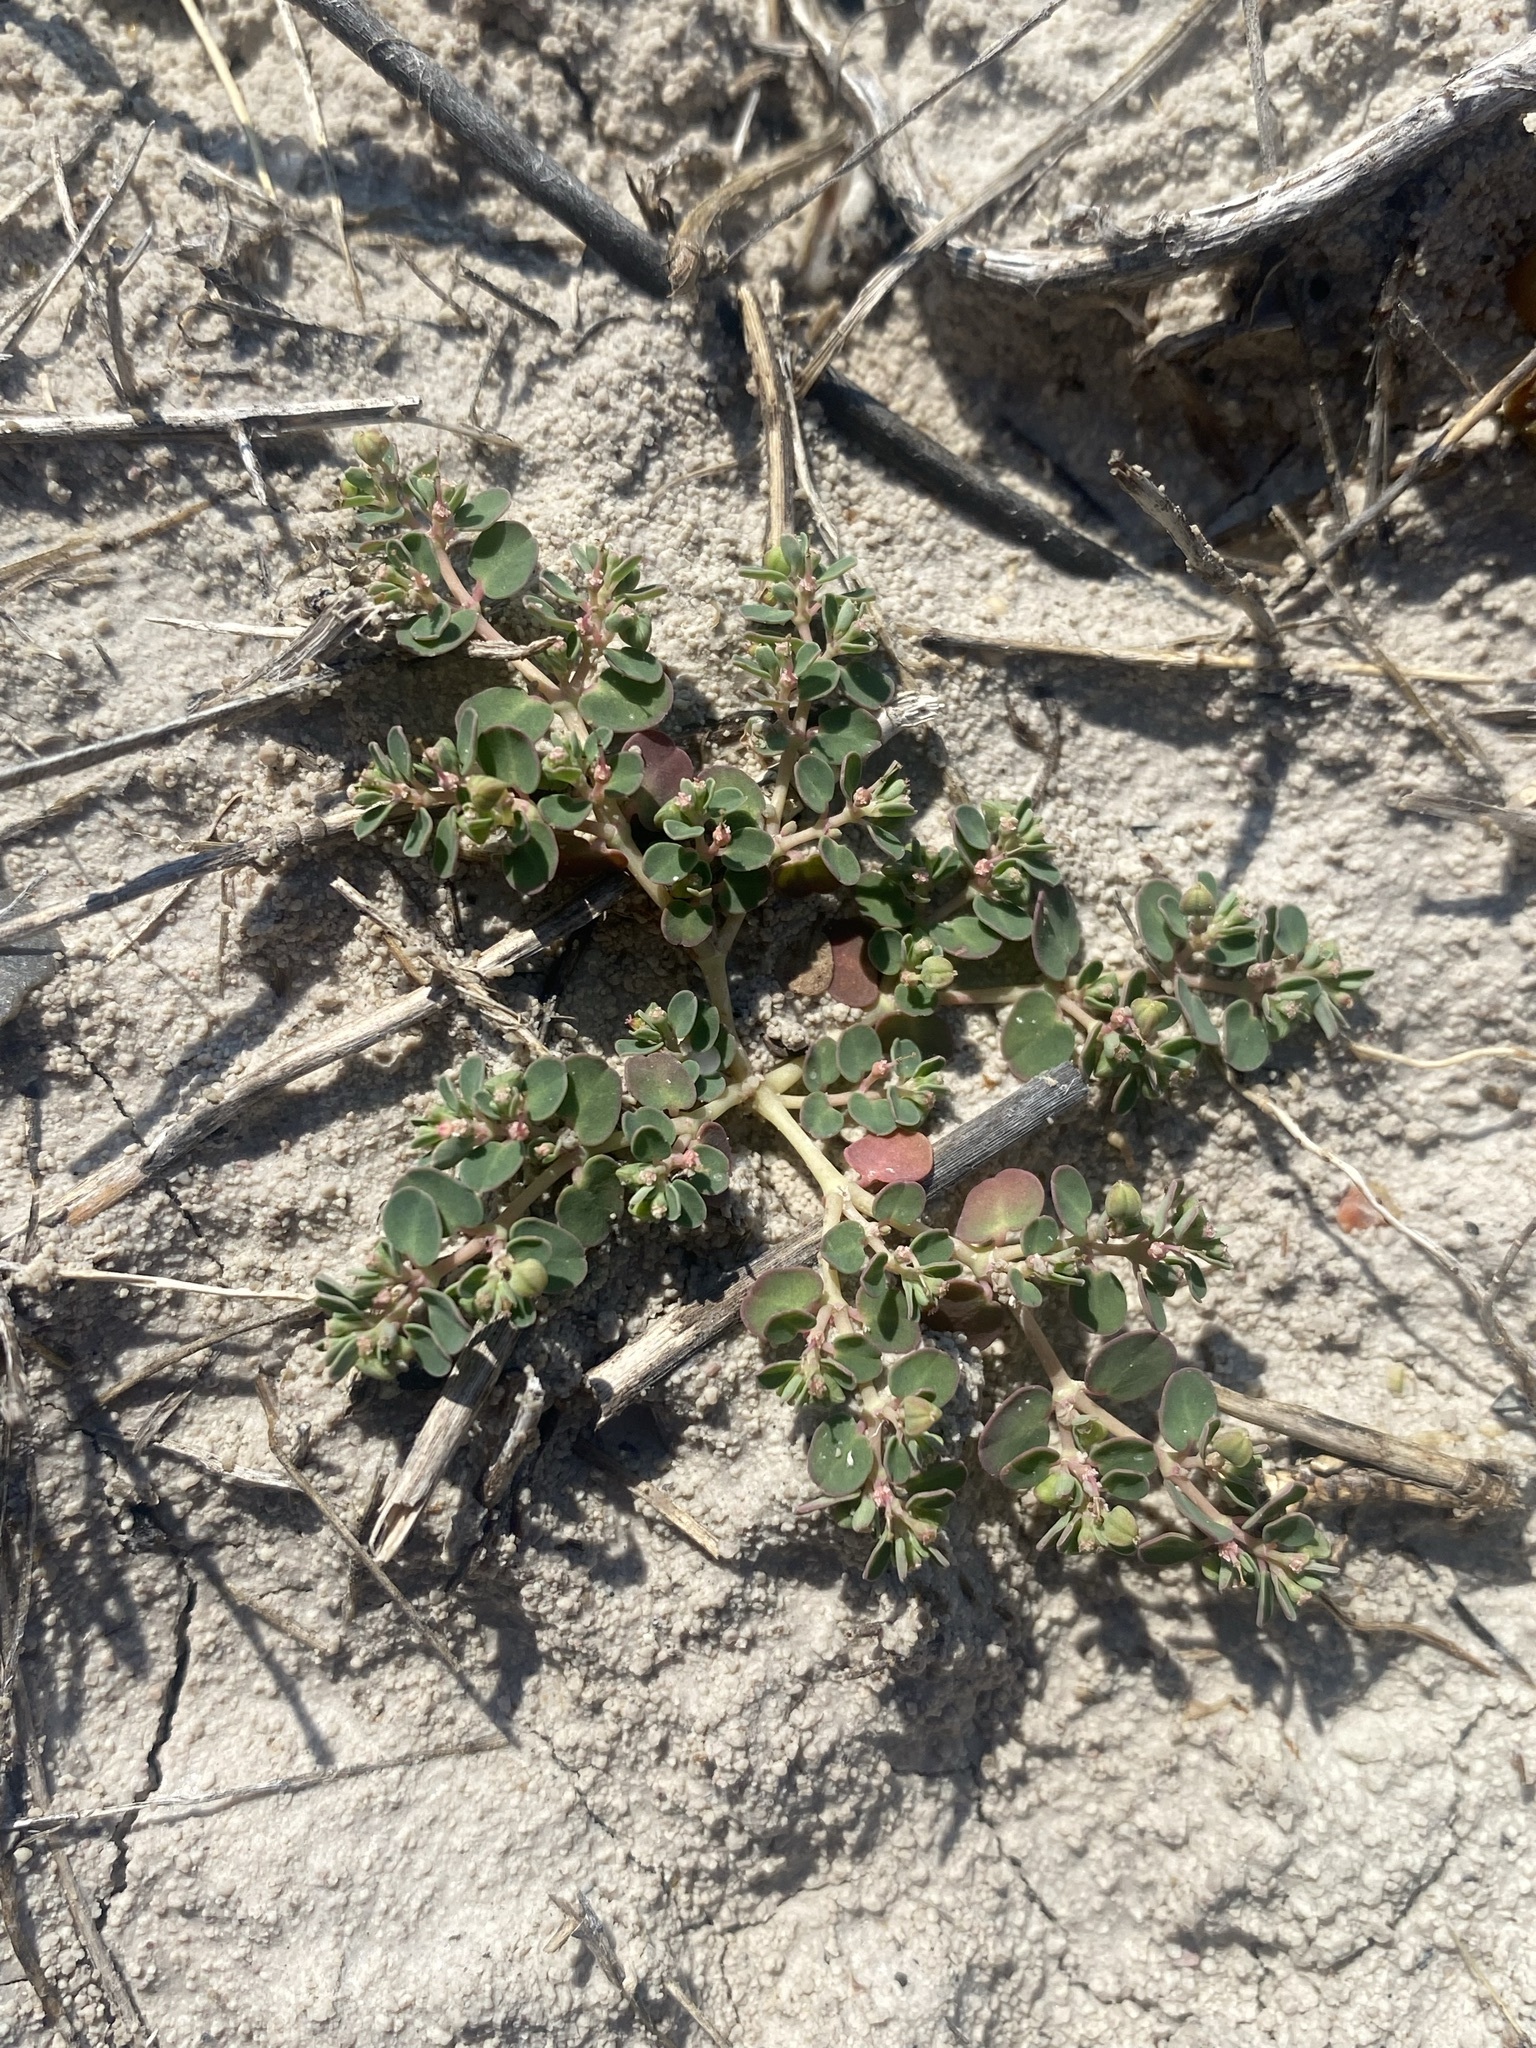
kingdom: Plantae
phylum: Tracheophyta
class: Magnoliopsida
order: Malpighiales
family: Euphorbiaceae
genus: Euphorbia
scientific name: Euphorbia serpens
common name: Matted sandmat
